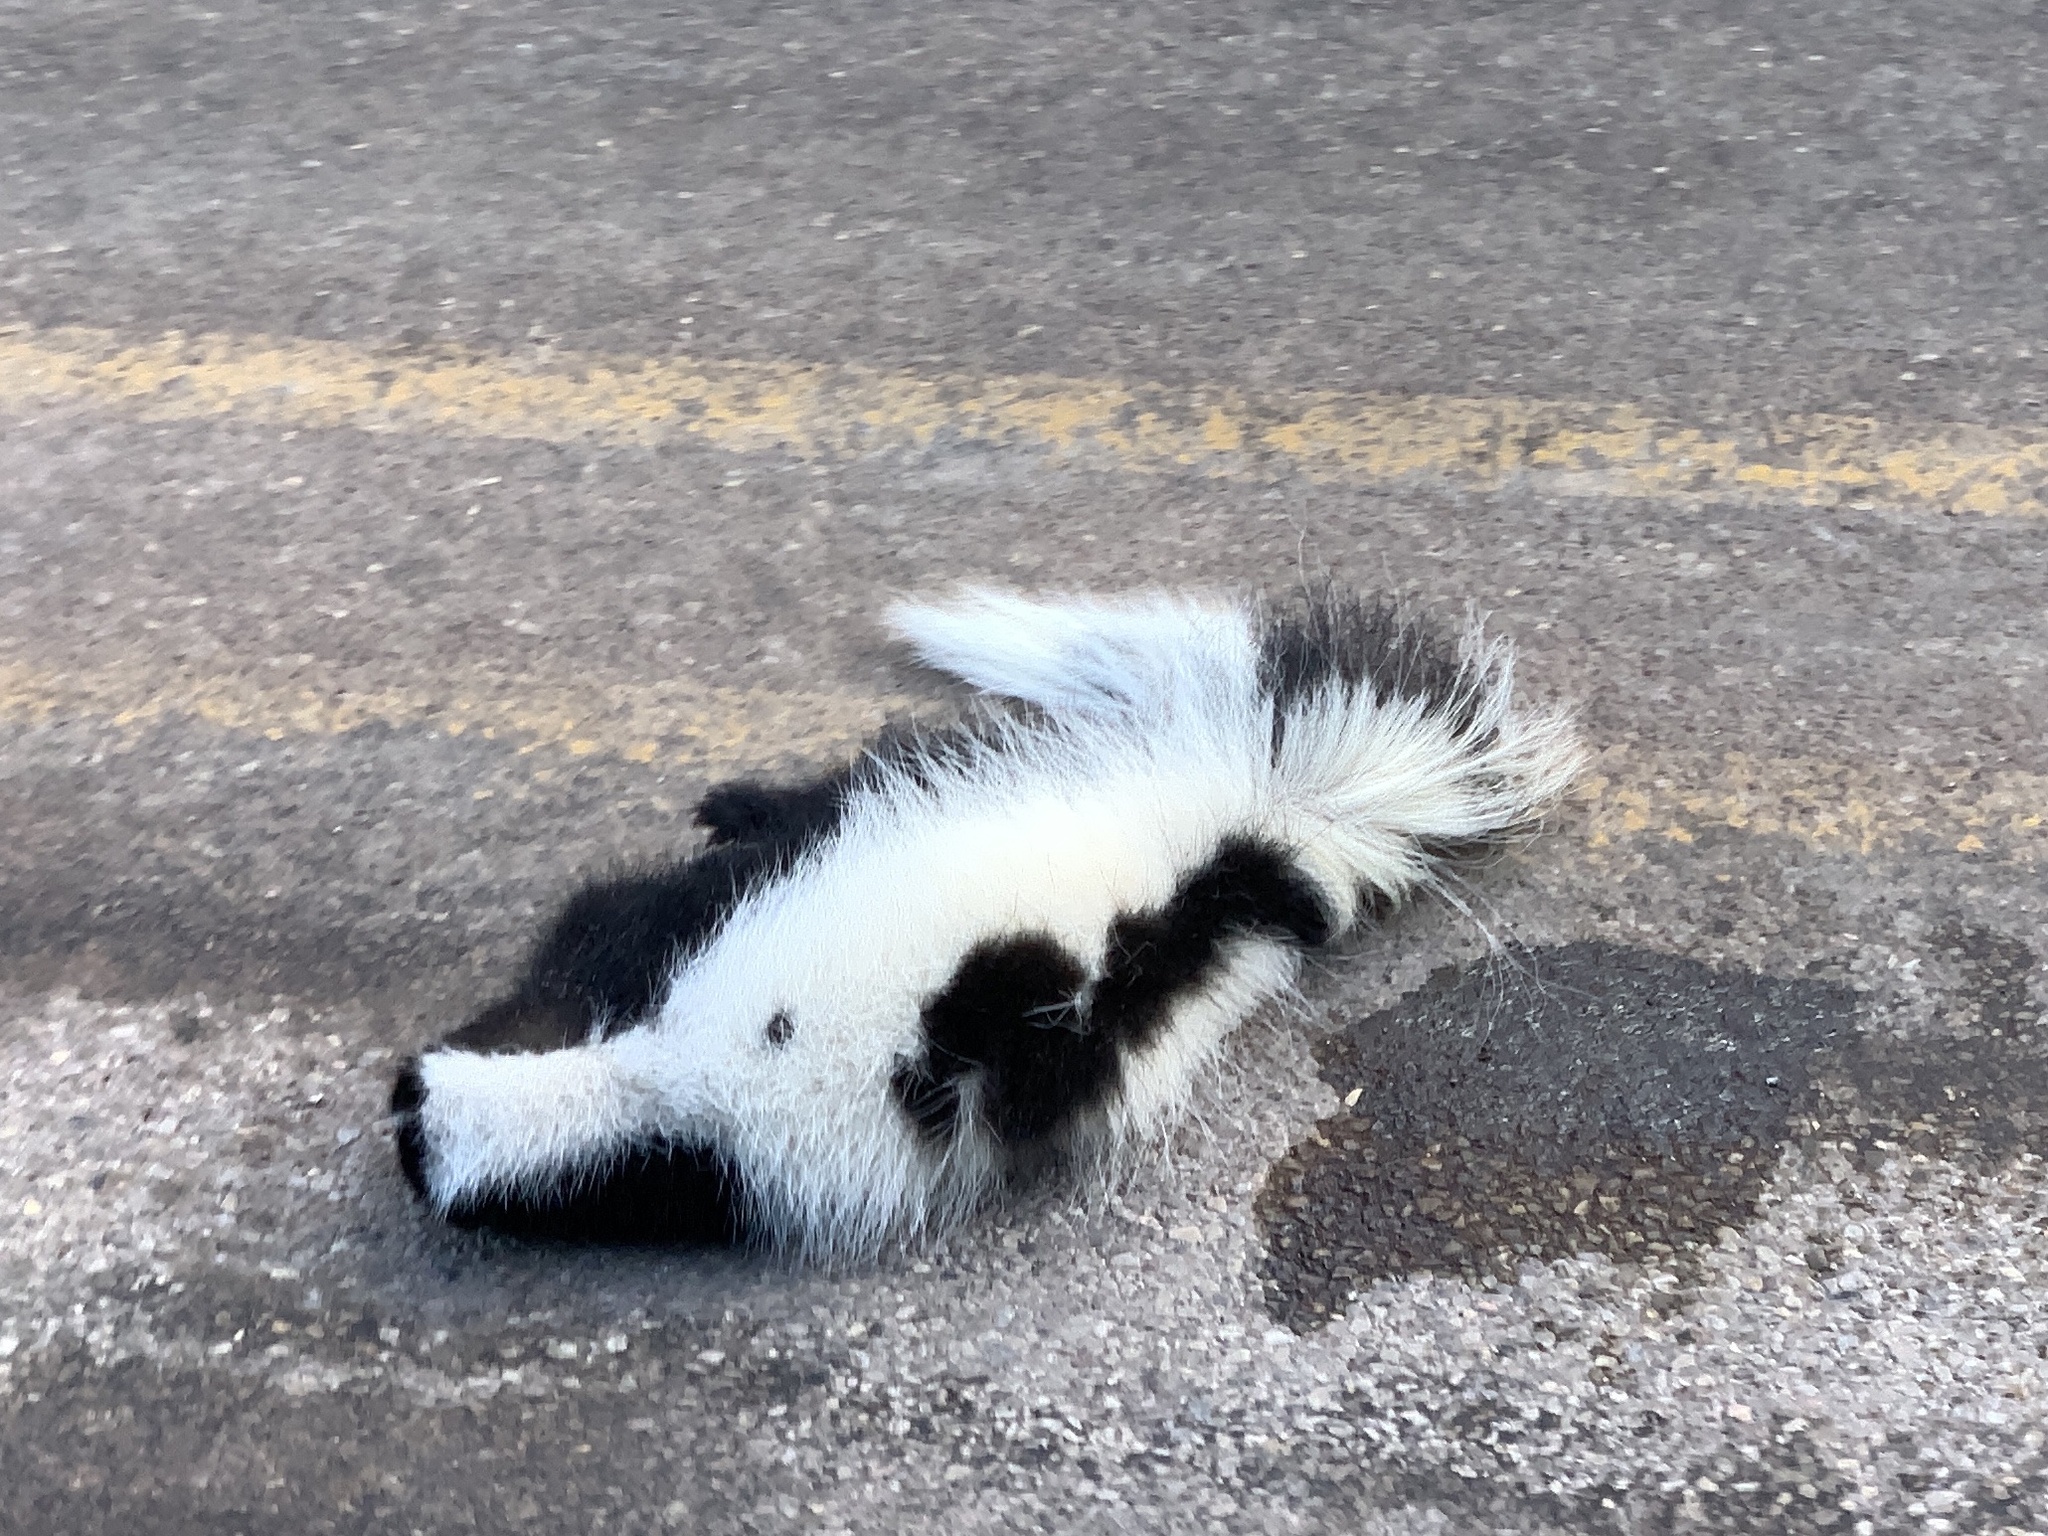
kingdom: Animalia
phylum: Chordata
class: Mammalia
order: Carnivora
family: Mephitidae
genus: Mephitis
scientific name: Mephitis mephitis
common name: Striped skunk
